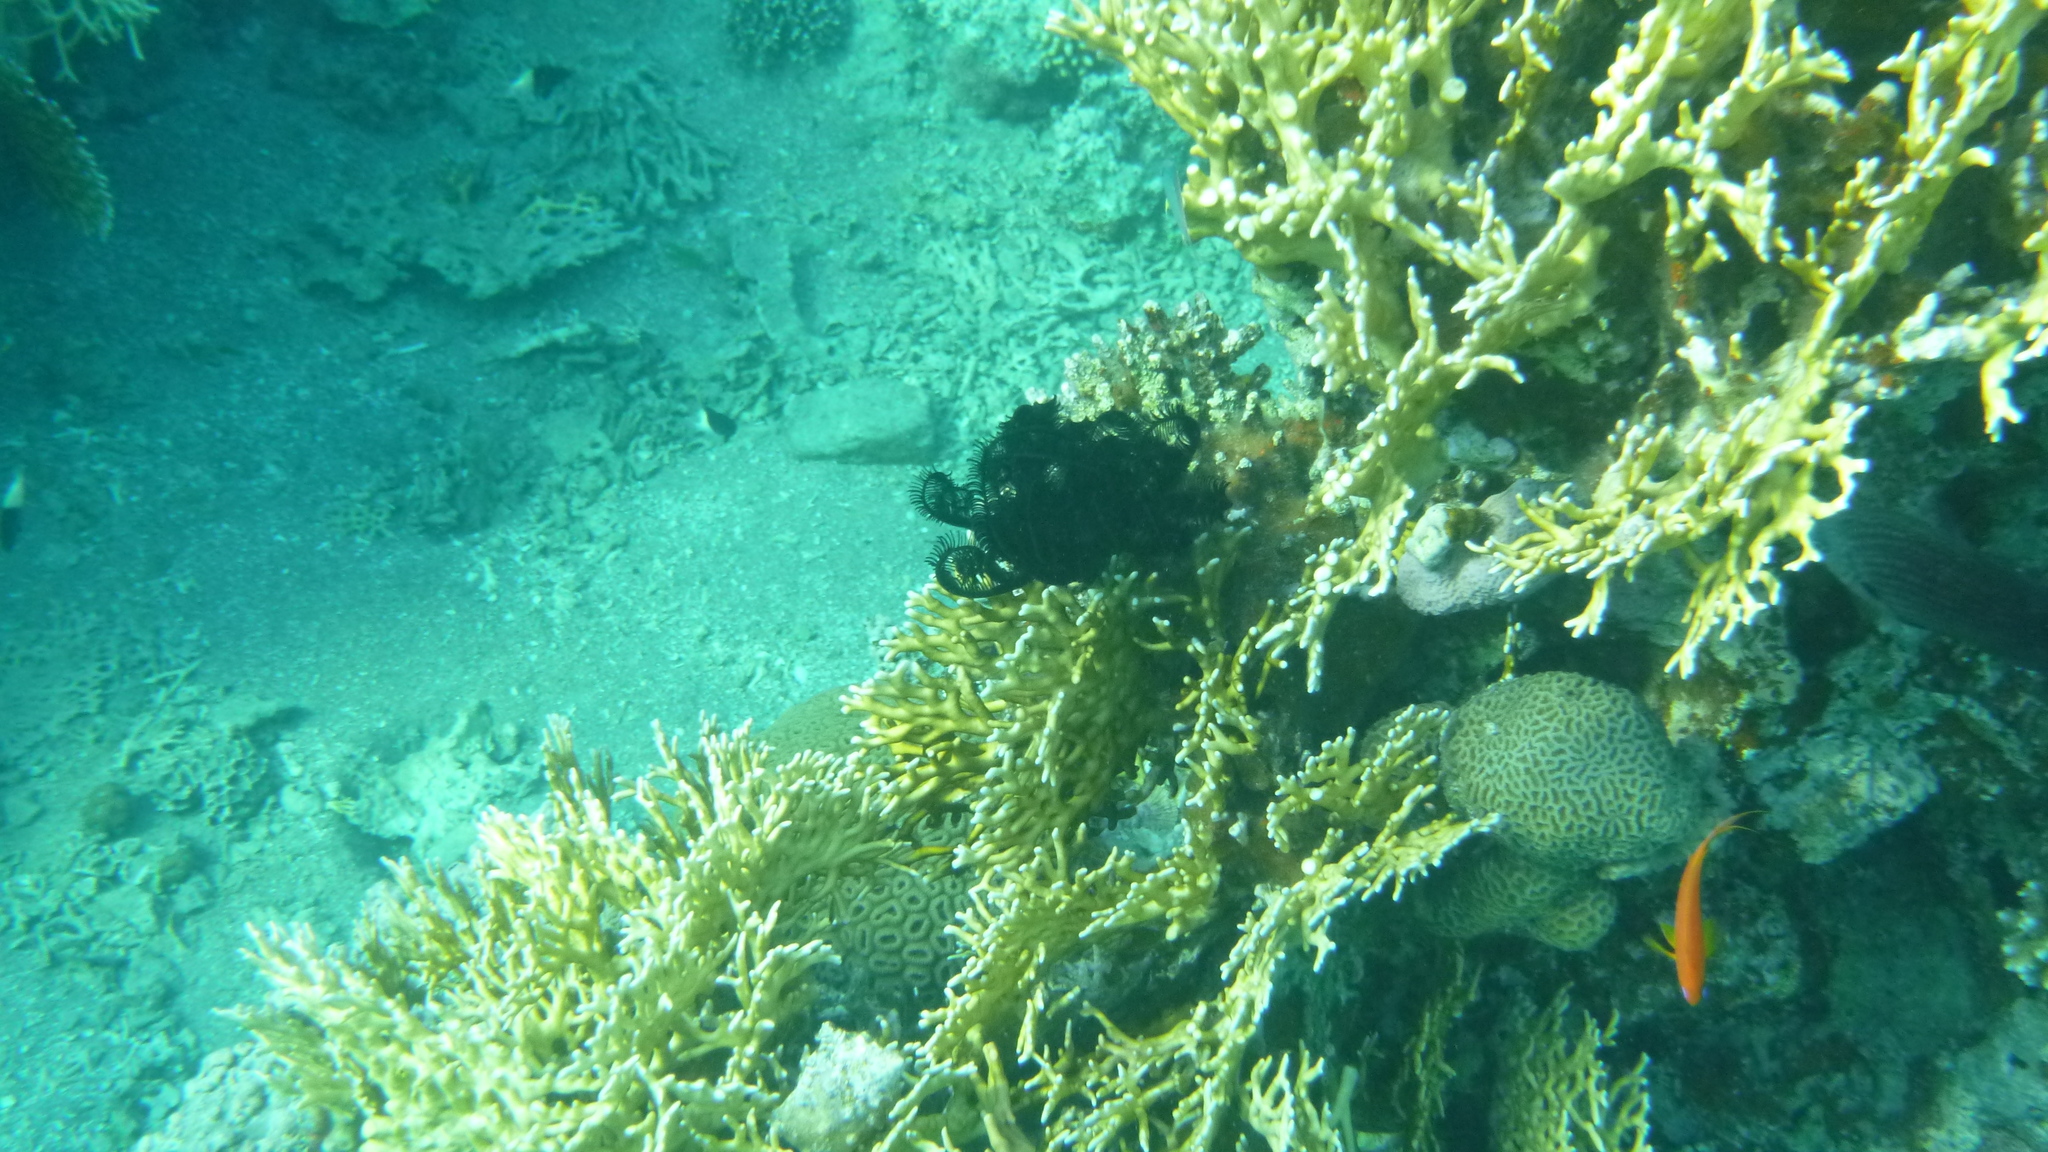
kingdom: Animalia
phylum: Echinodermata
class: Crinoidea
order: Comatulida
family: Comatulidae
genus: Capillaster
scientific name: Capillaster multiradiatus
